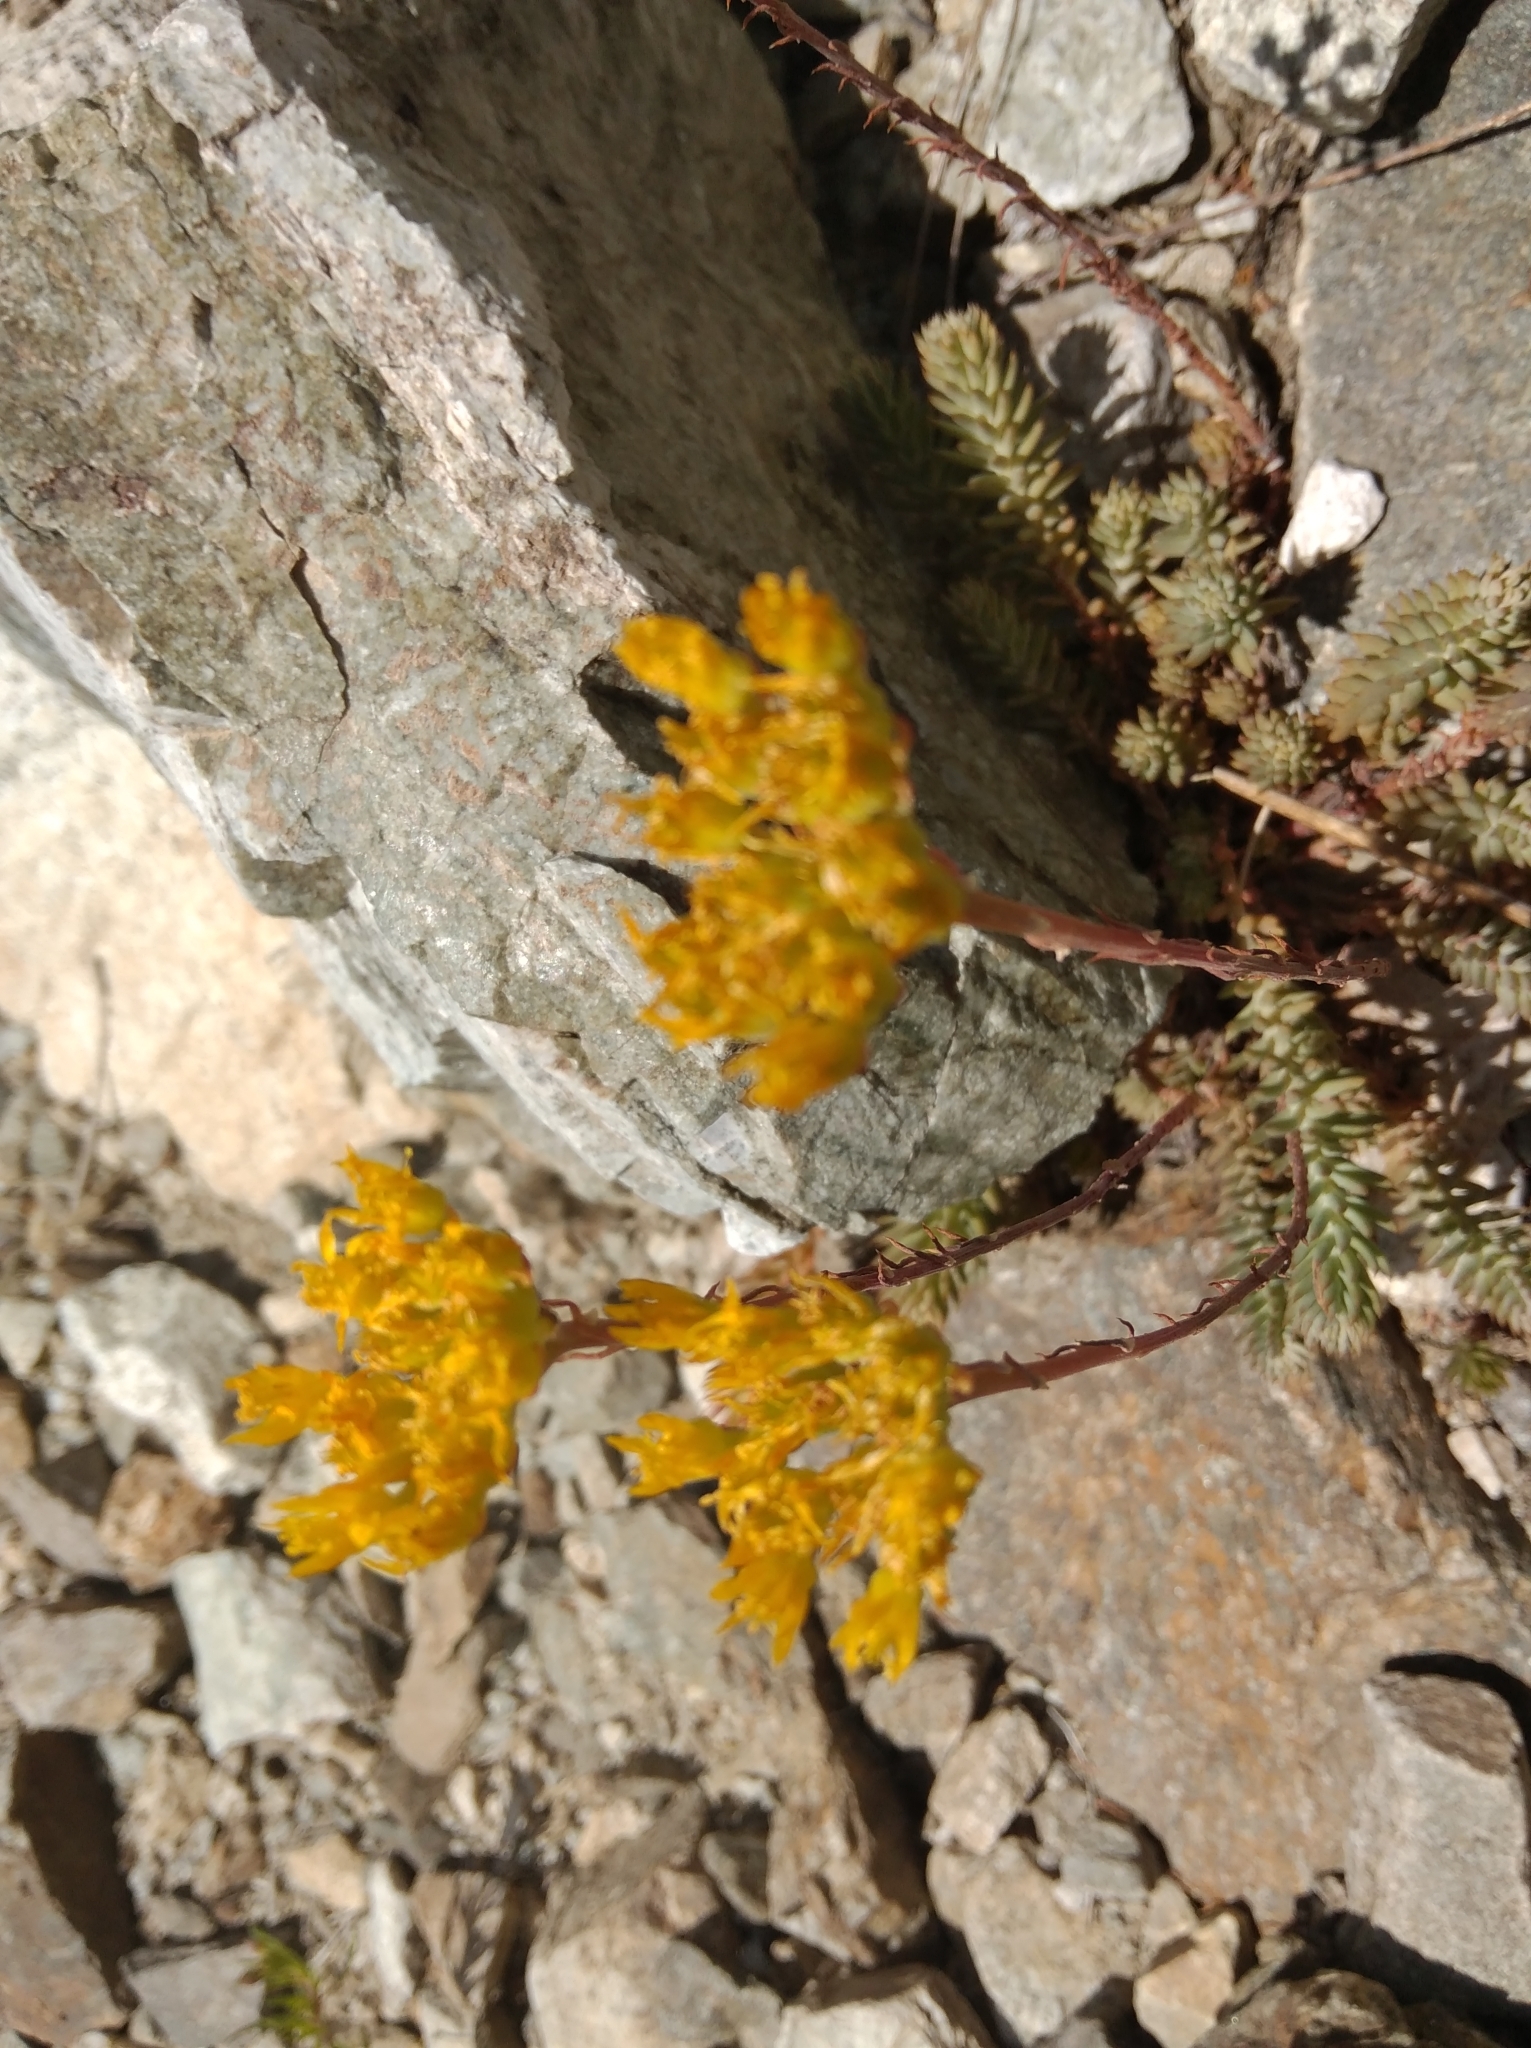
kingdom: Plantae
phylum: Tracheophyta
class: Magnoliopsida
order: Saxifragales
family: Crassulaceae
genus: Petrosedum
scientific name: Petrosedum rupestre
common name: Jenny's stonecrop
